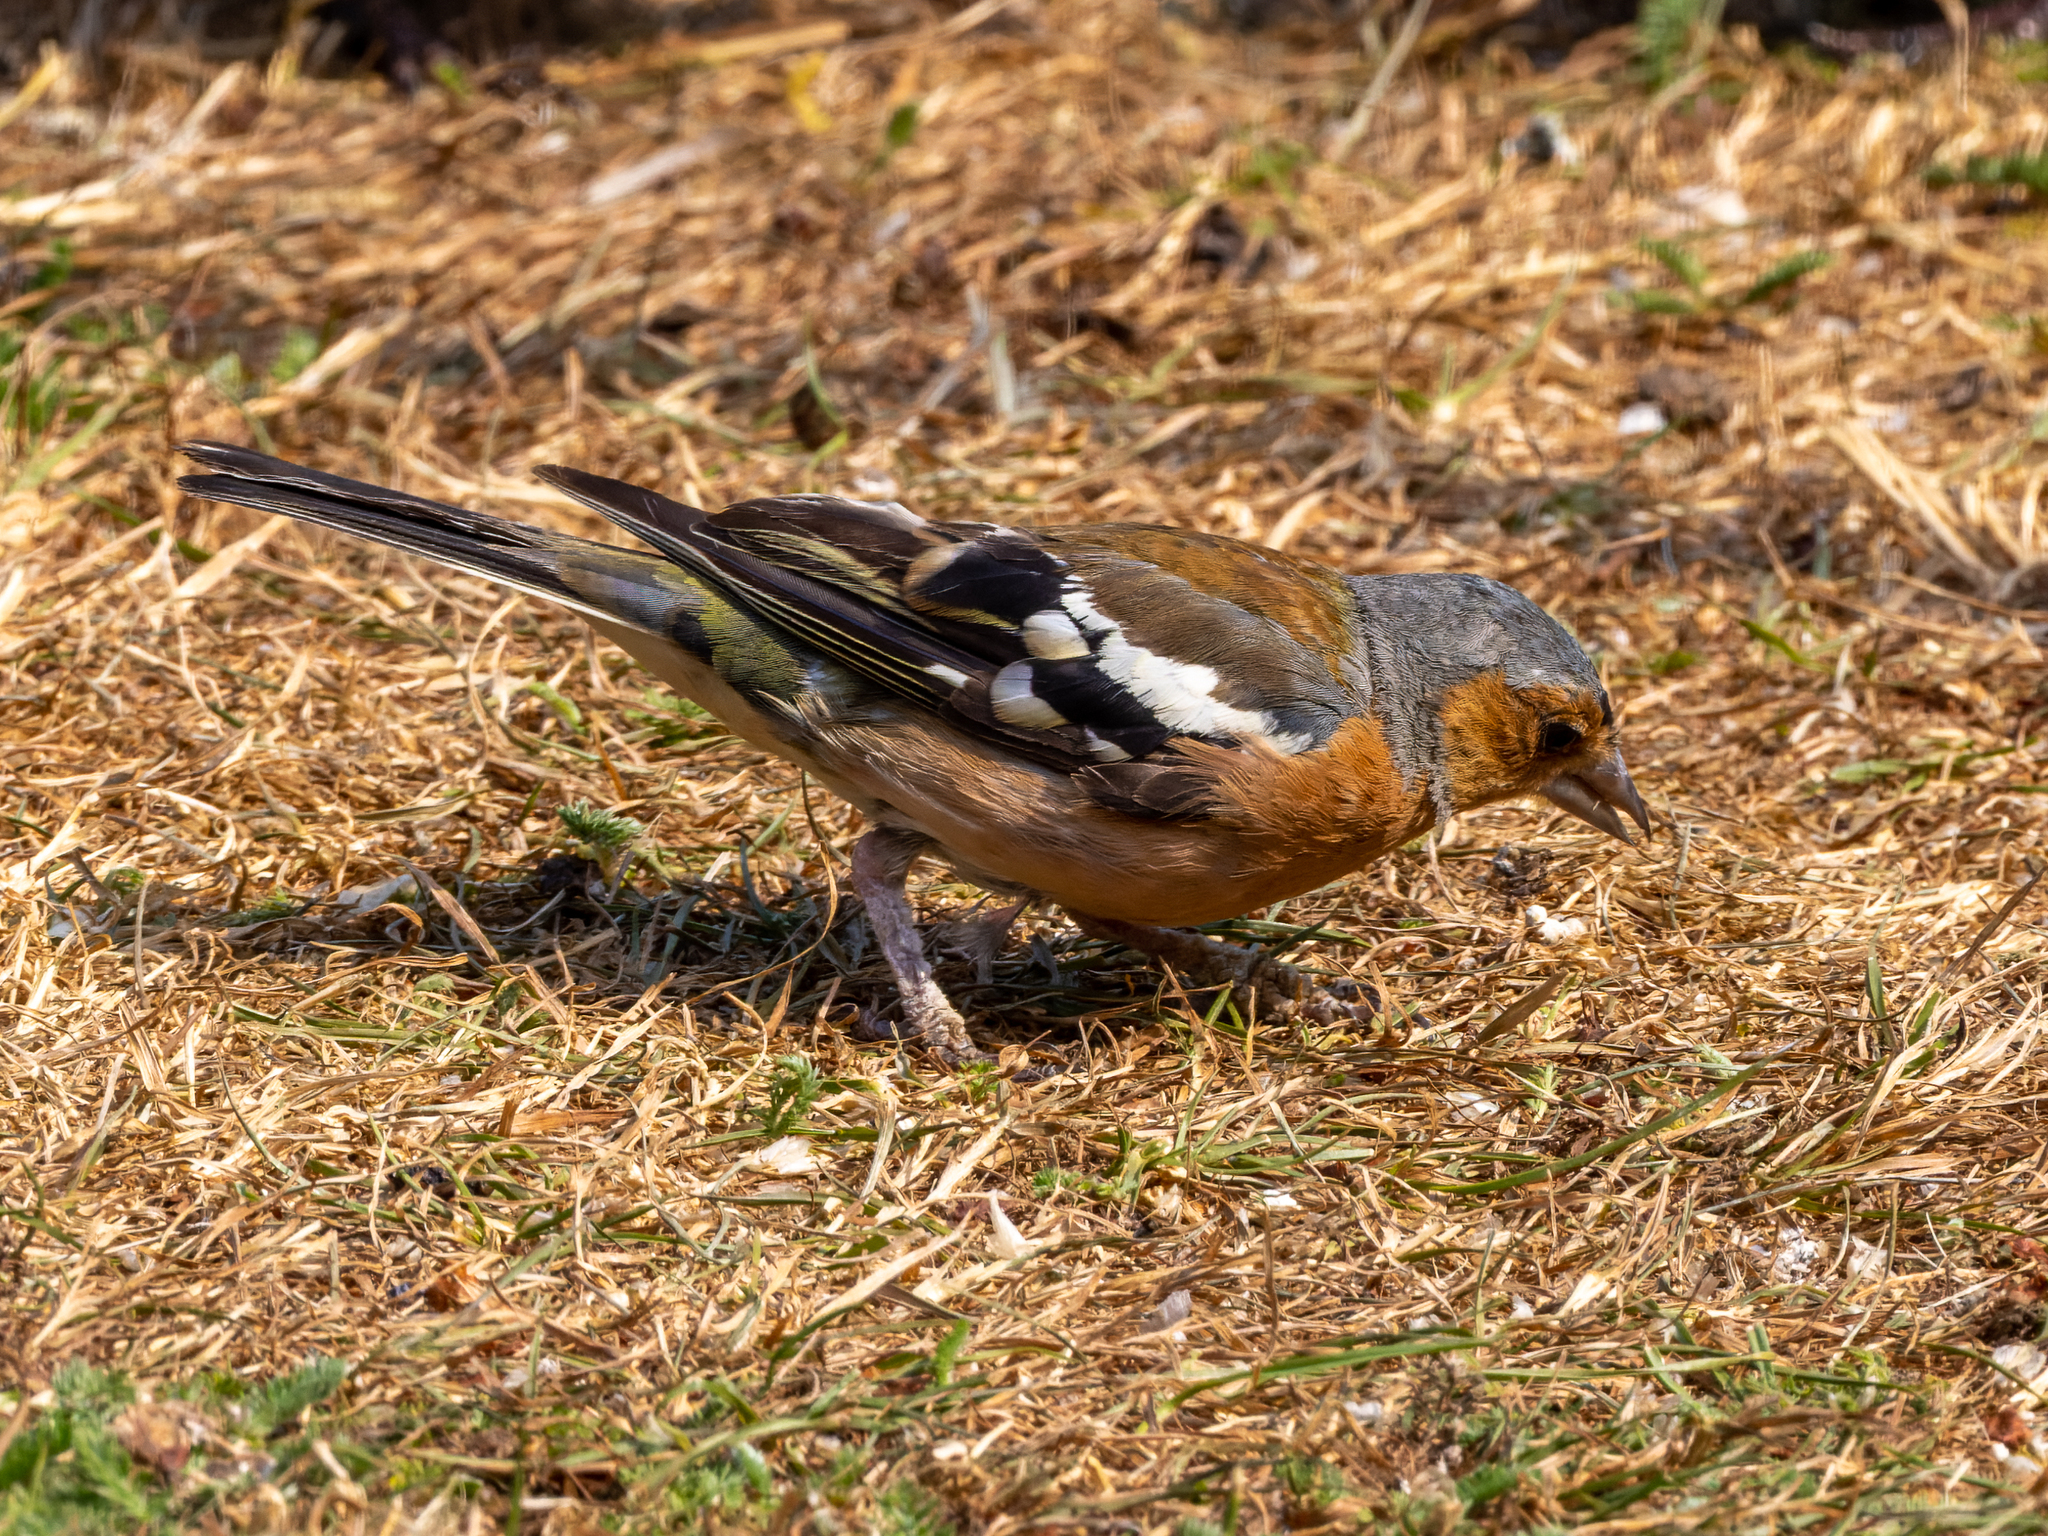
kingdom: Animalia
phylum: Chordata
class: Aves
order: Passeriformes
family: Fringillidae
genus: Fringilla
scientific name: Fringilla coelebs
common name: Common chaffinch
